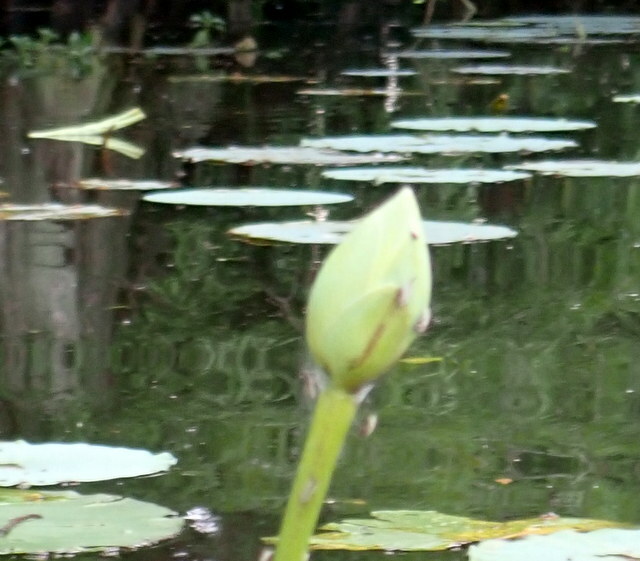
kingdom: Plantae
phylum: Tracheophyta
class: Magnoliopsida
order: Proteales
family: Nelumbonaceae
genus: Nelumbo
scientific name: Nelumbo lutea
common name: American lotus
